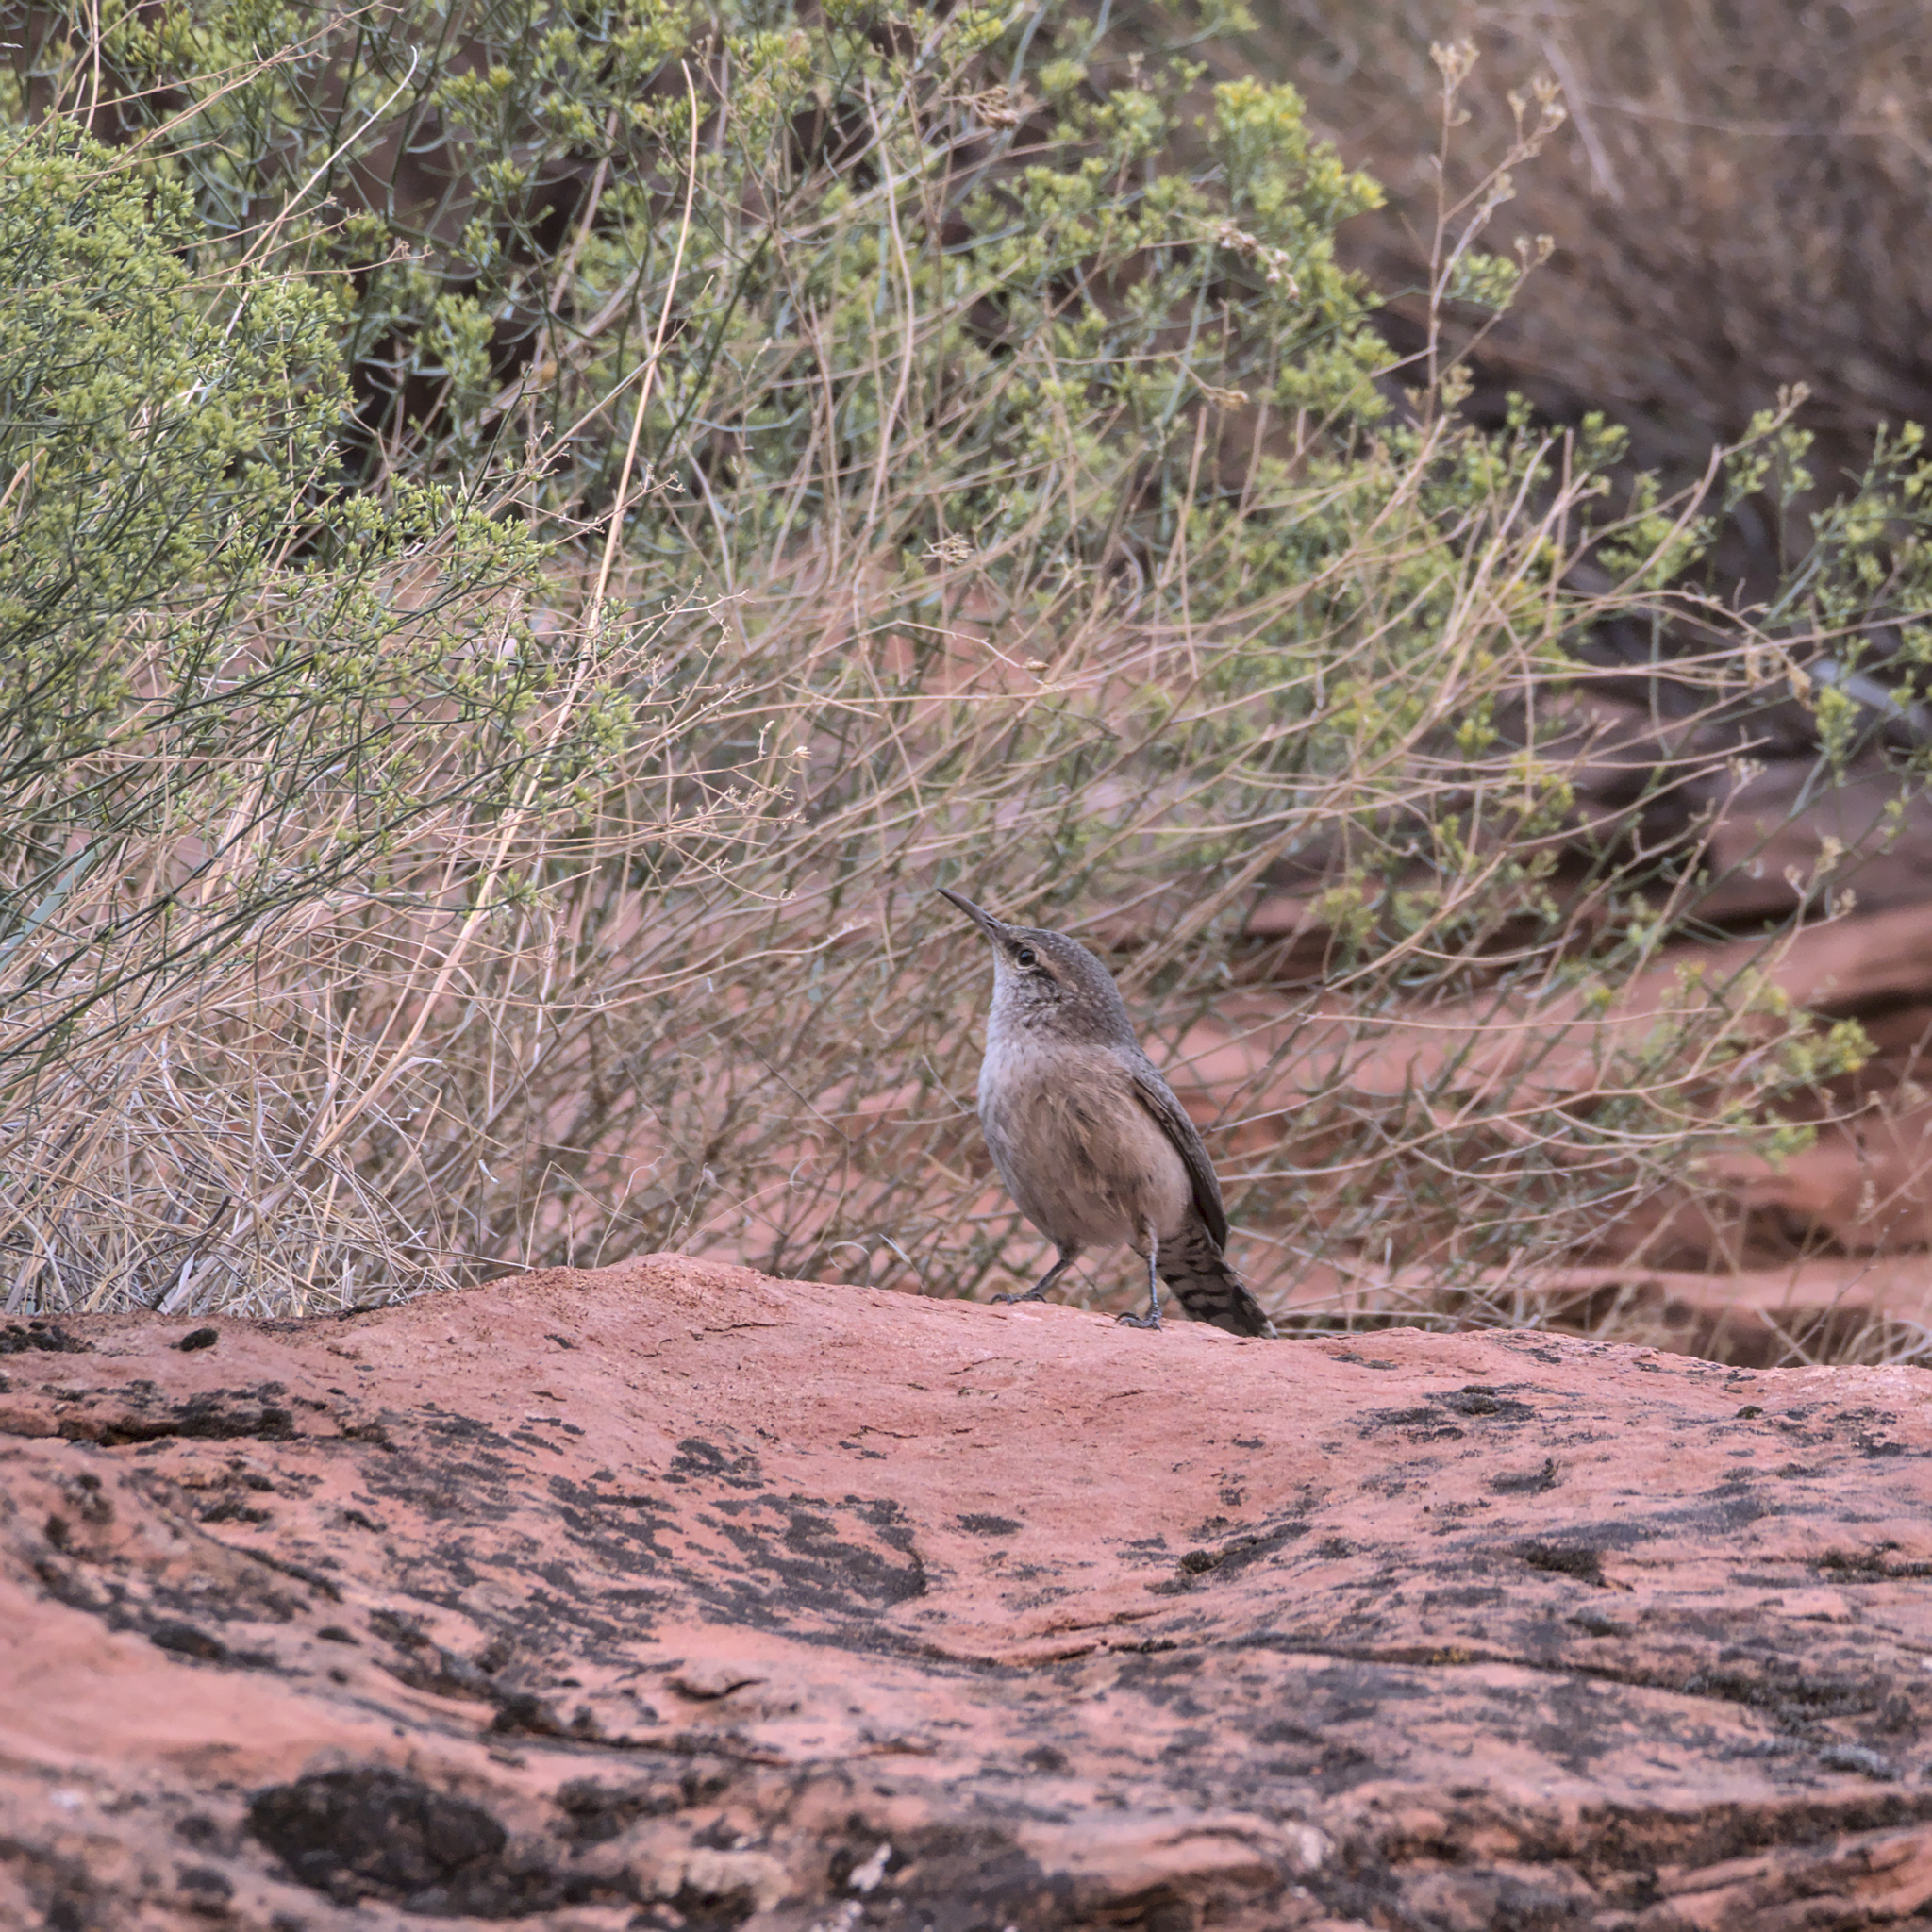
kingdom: Animalia
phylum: Chordata
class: Aves
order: Passeriformes
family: Troglodytidae
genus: Salpinctes
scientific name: Salpinctes obsoletus
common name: Rock wren
